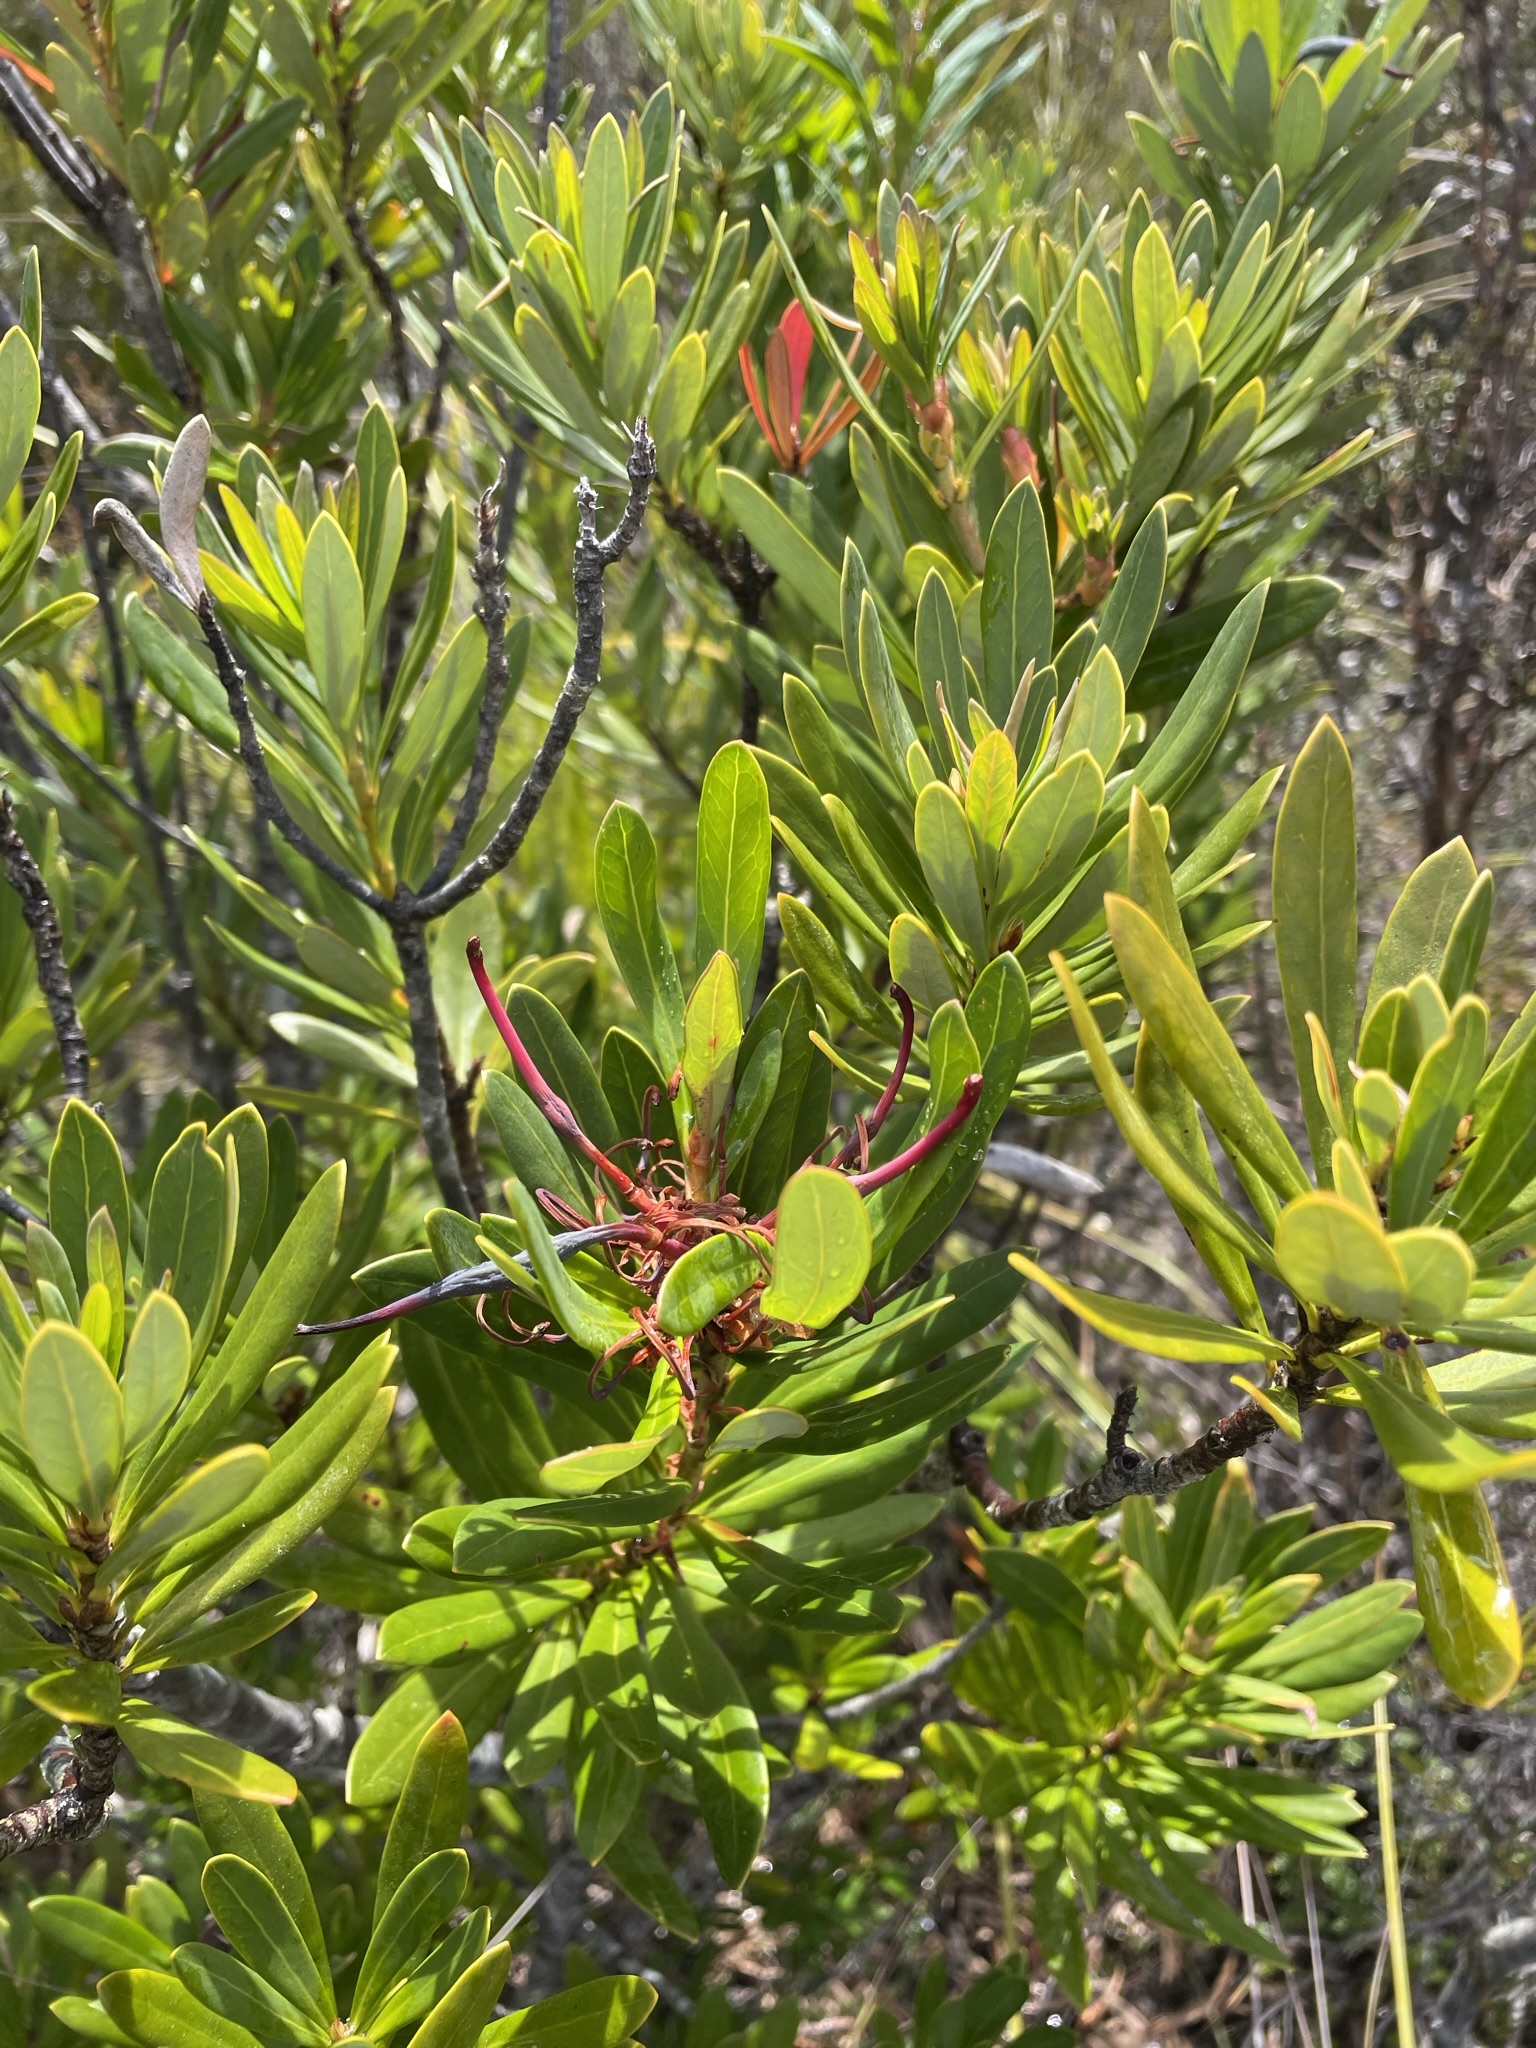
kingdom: Plantae
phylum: Tracheophyta
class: Magnoliopsida
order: Proteales
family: Proteaceae
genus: Telopea
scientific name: Telopea truncata
